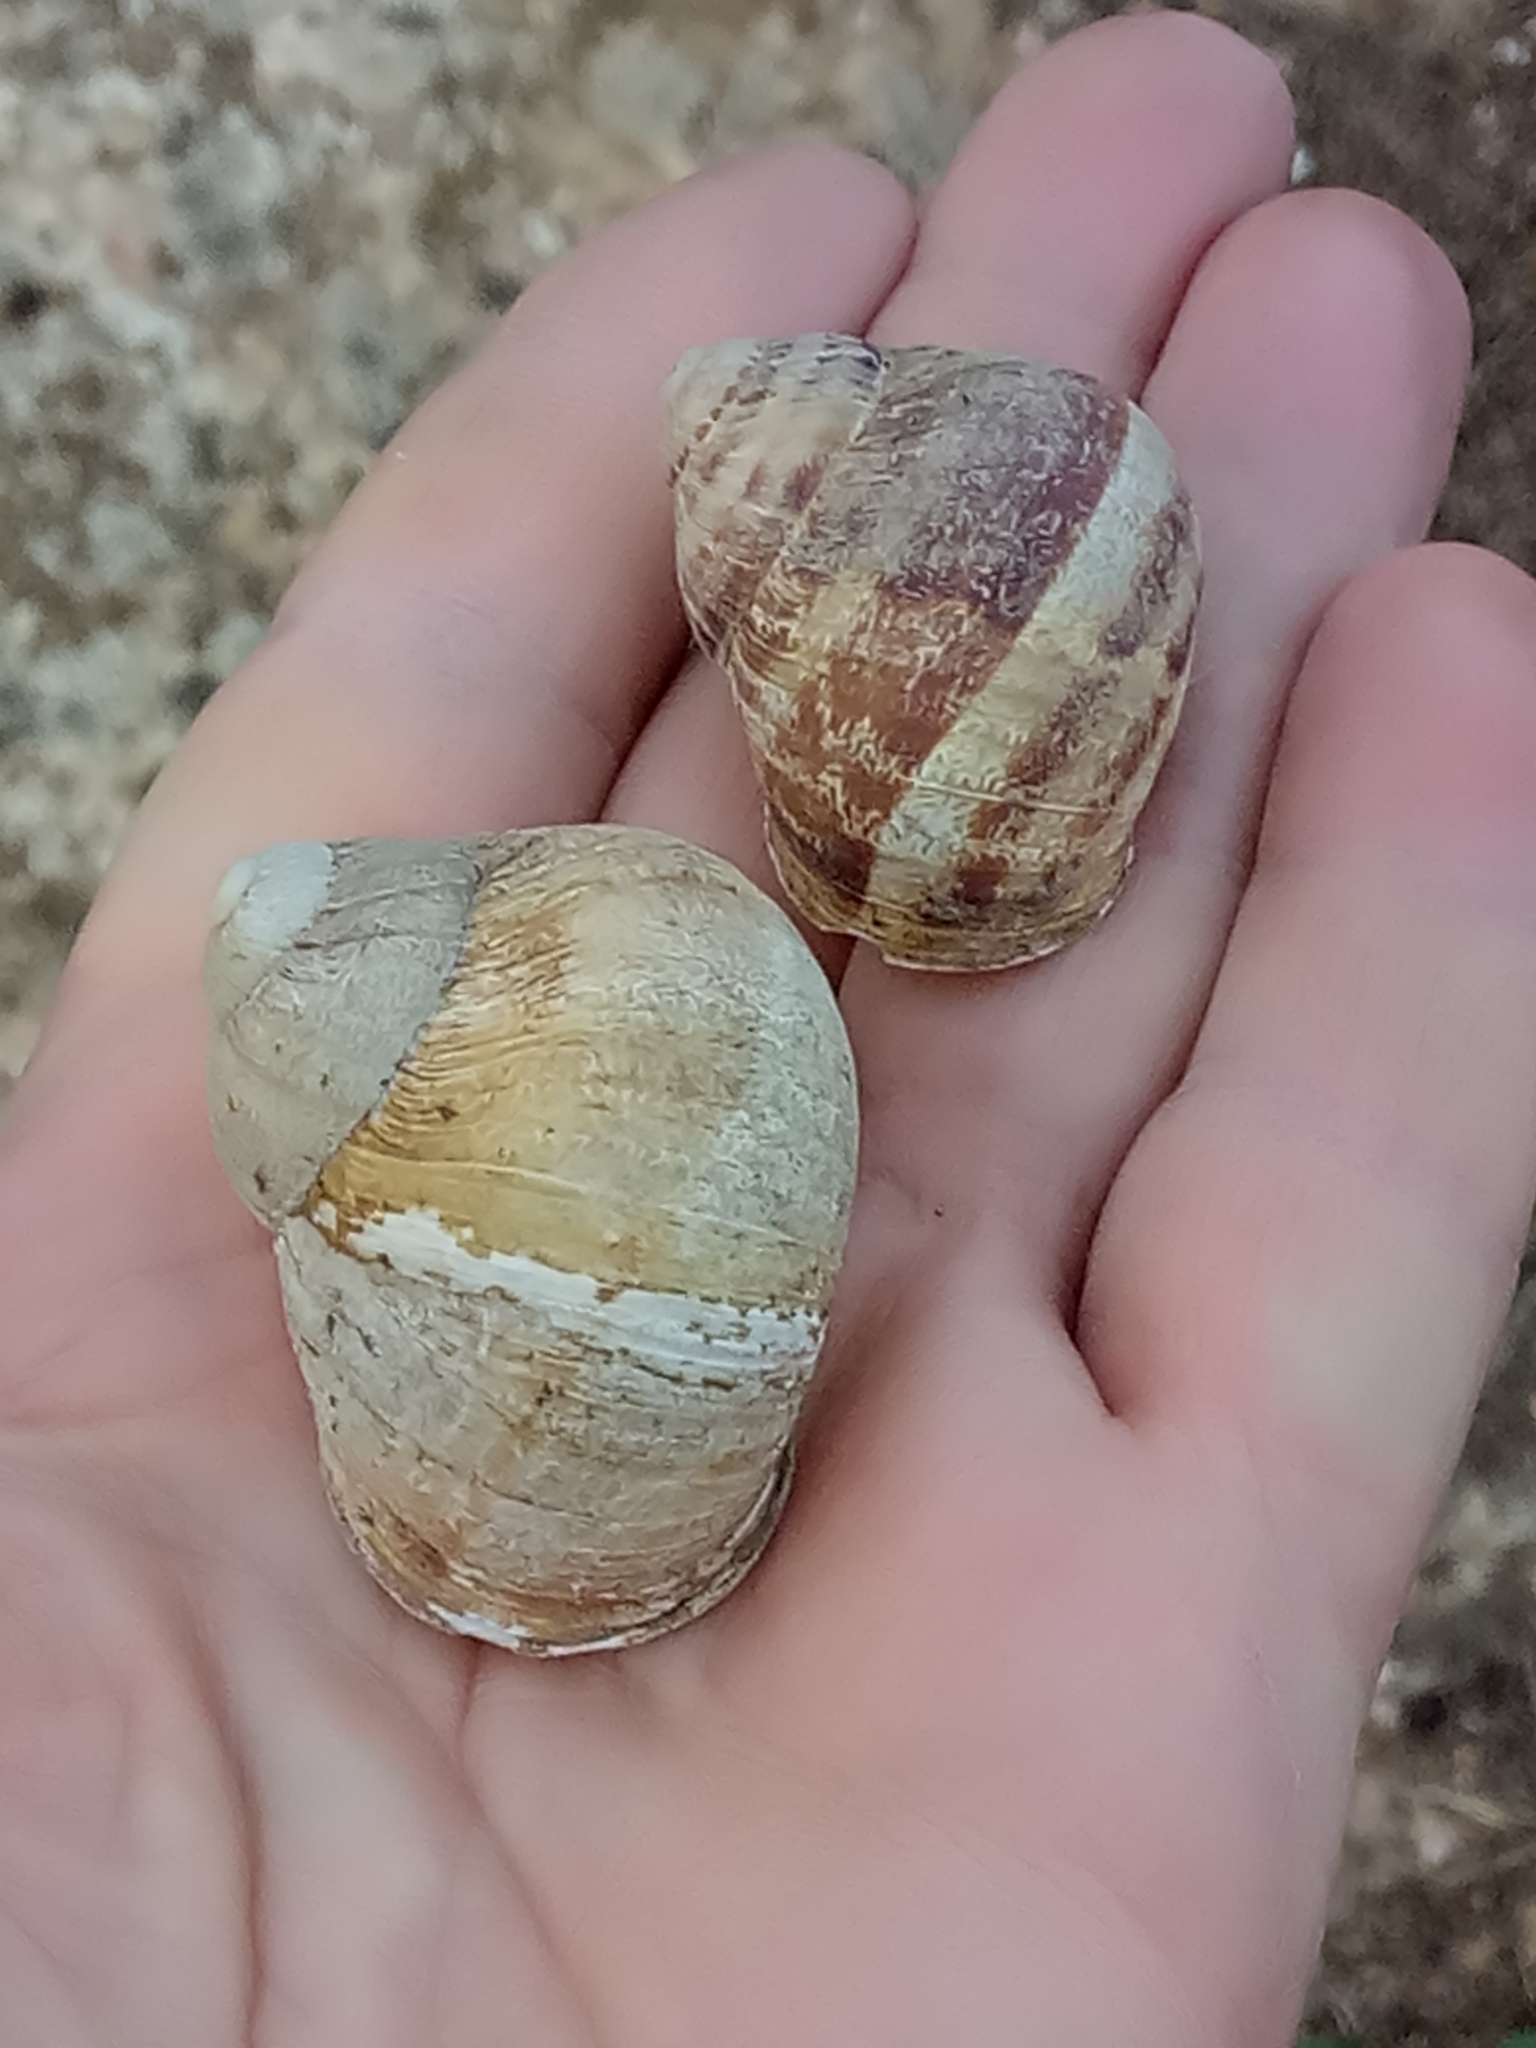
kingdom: Animalia
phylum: Mollusca
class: Gastropoda
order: Stylommatophora
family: Helicidae
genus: Cornu
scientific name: Cornu aspersum
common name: Brown garden snail
